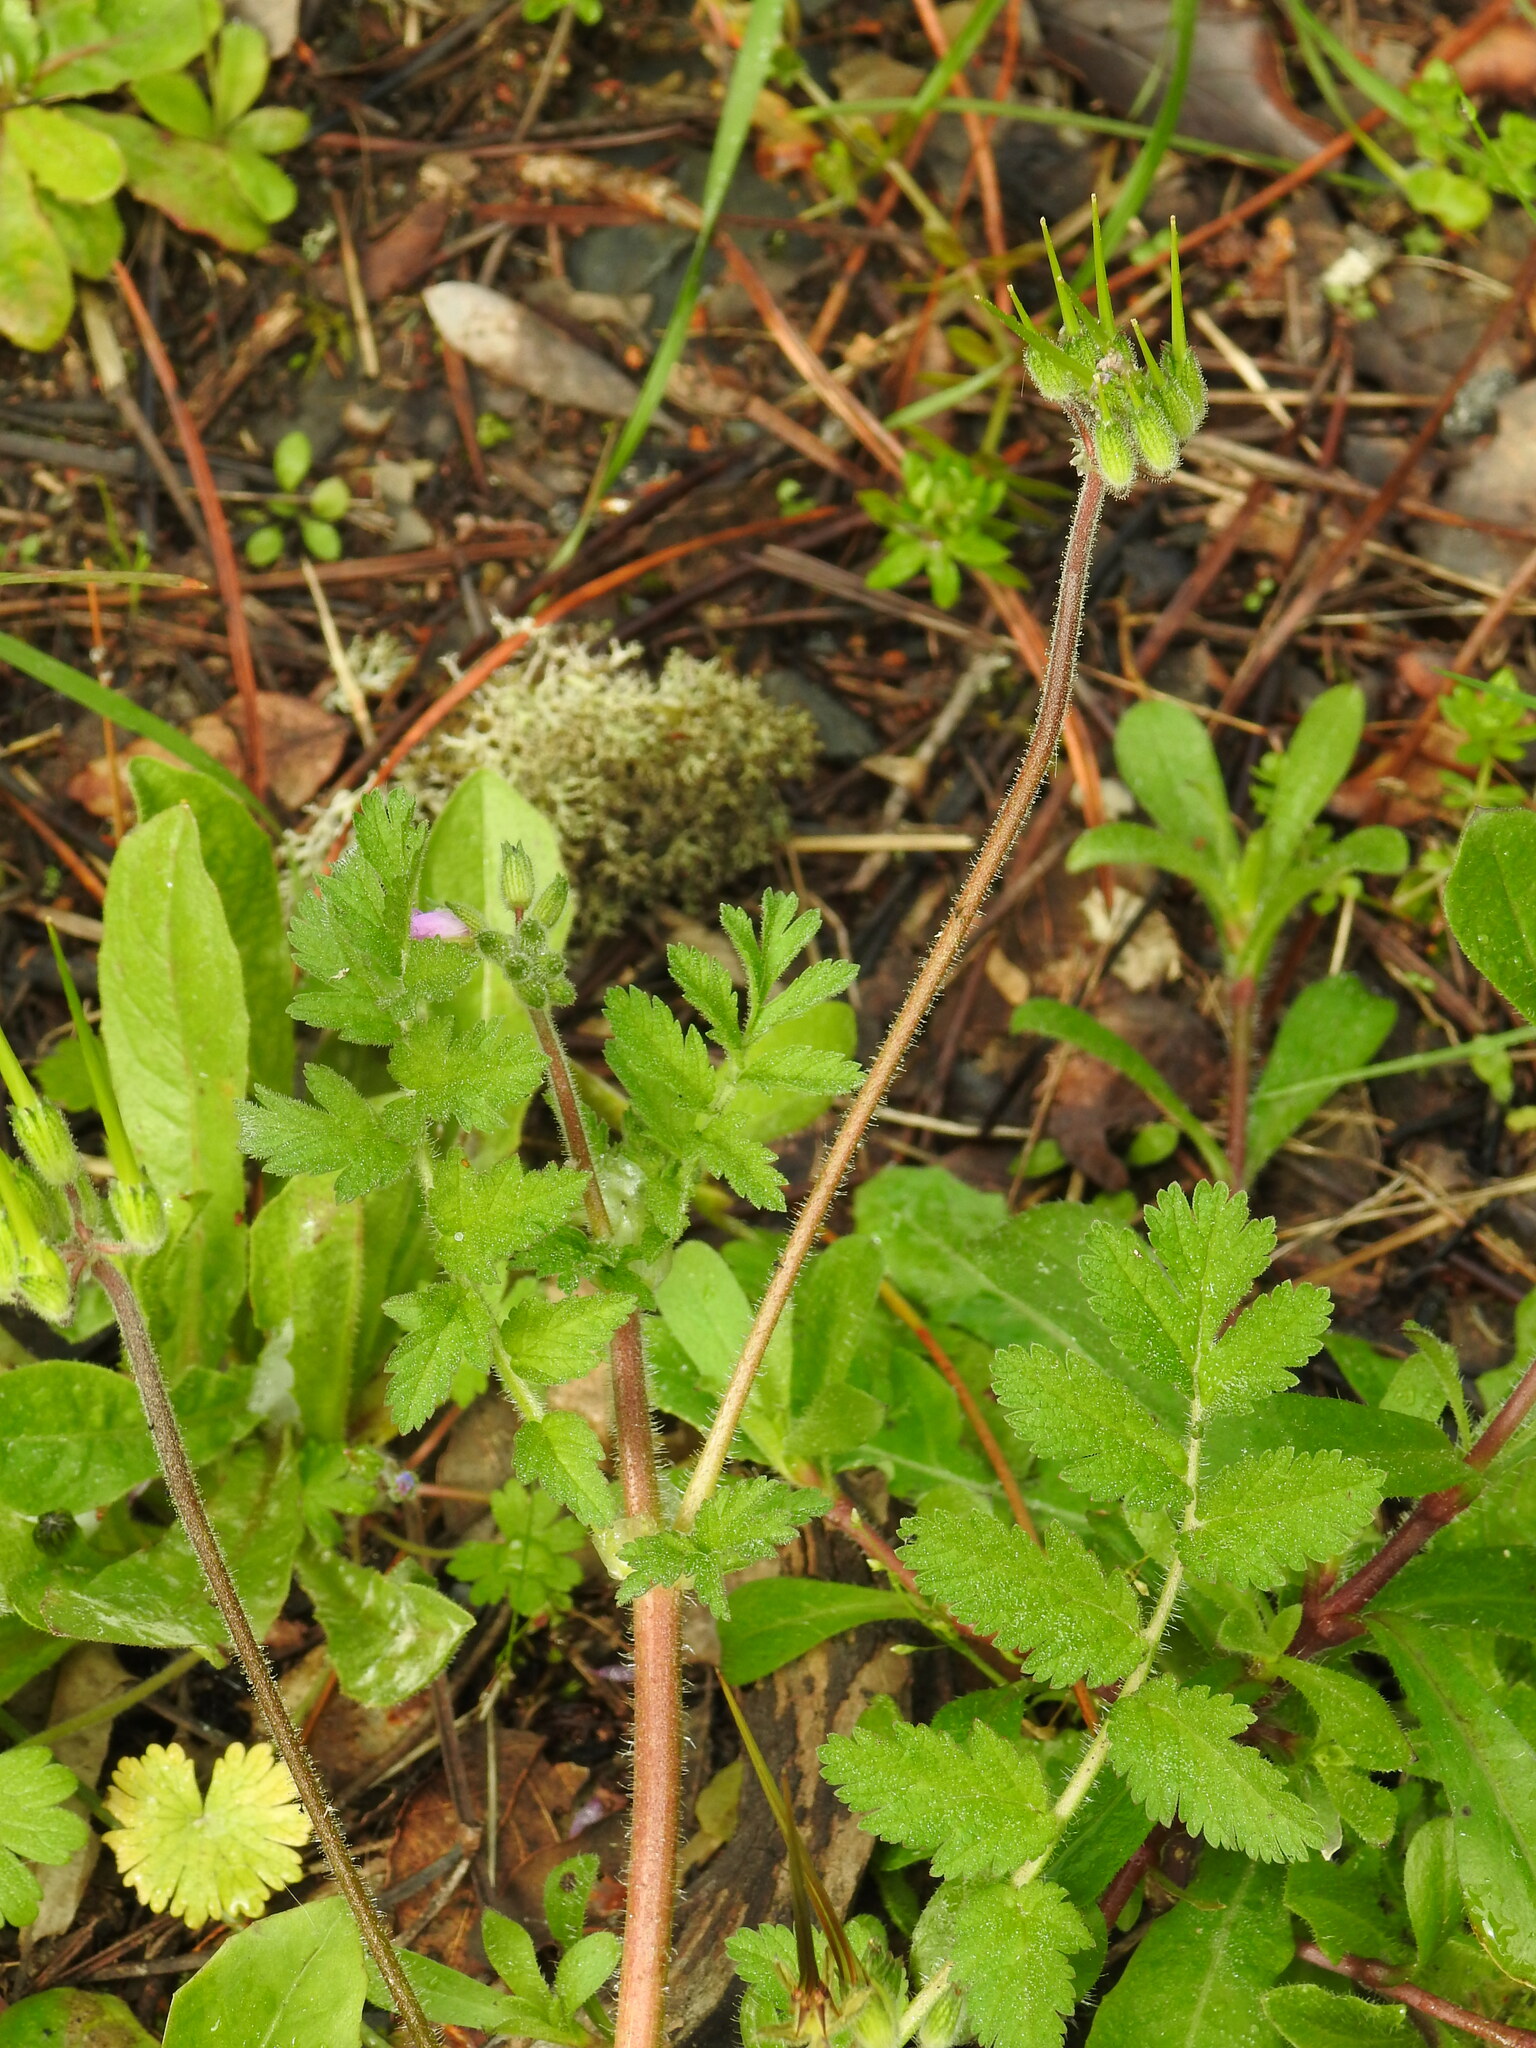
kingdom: Plantae
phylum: Tracheophyta
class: Magnoliopsida
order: Geraniales
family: Geraniaceae
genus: Erodium
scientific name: Erodium moschatum
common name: Musk stork's-bill
